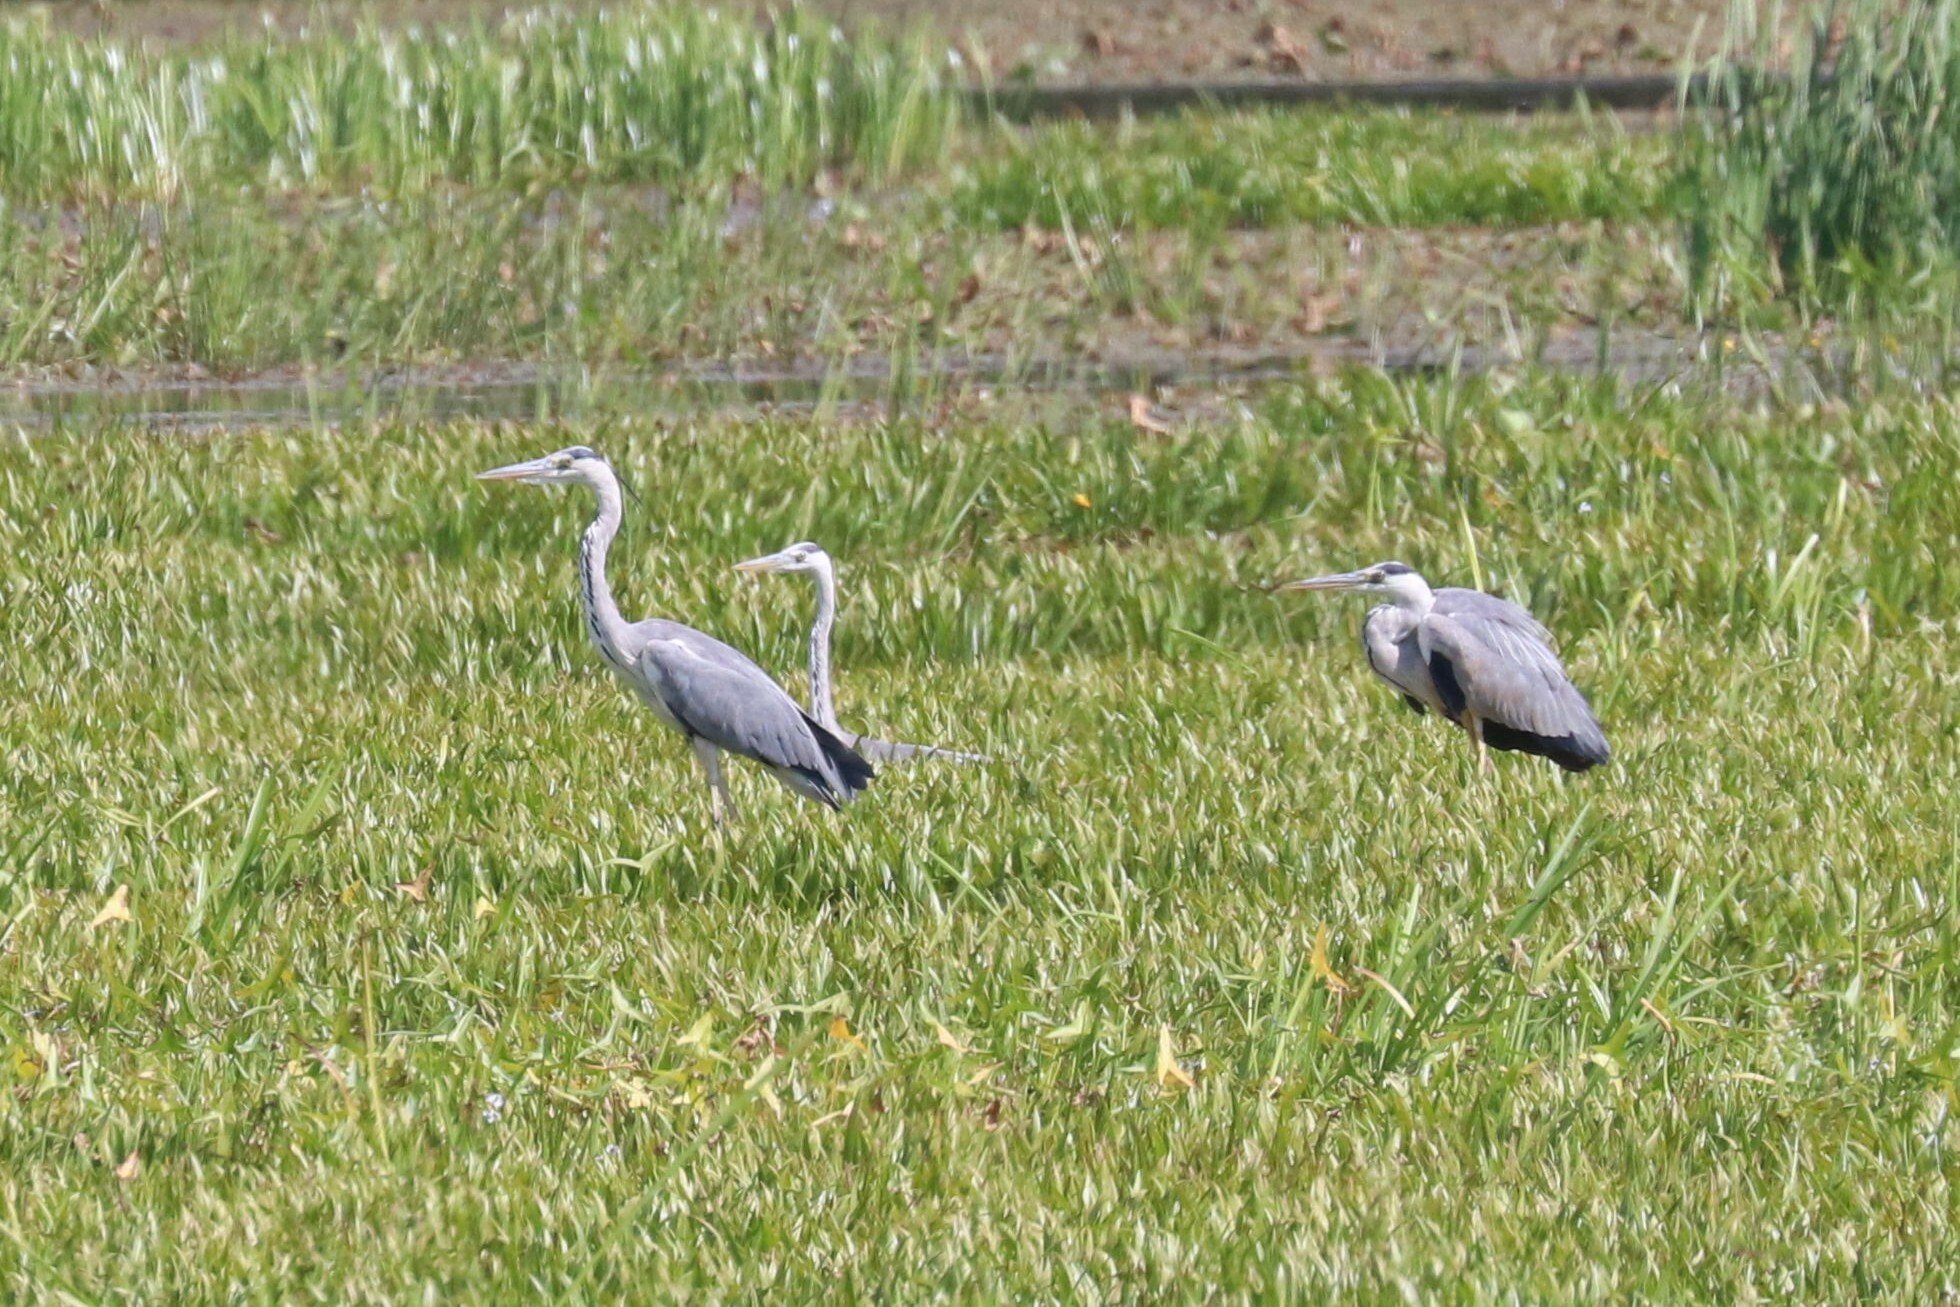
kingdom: Animalia
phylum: Chordata
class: Aves
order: Pelecaniformes
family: Ardeidae
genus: Ardea
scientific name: Ardea cinerea
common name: Grey heron
